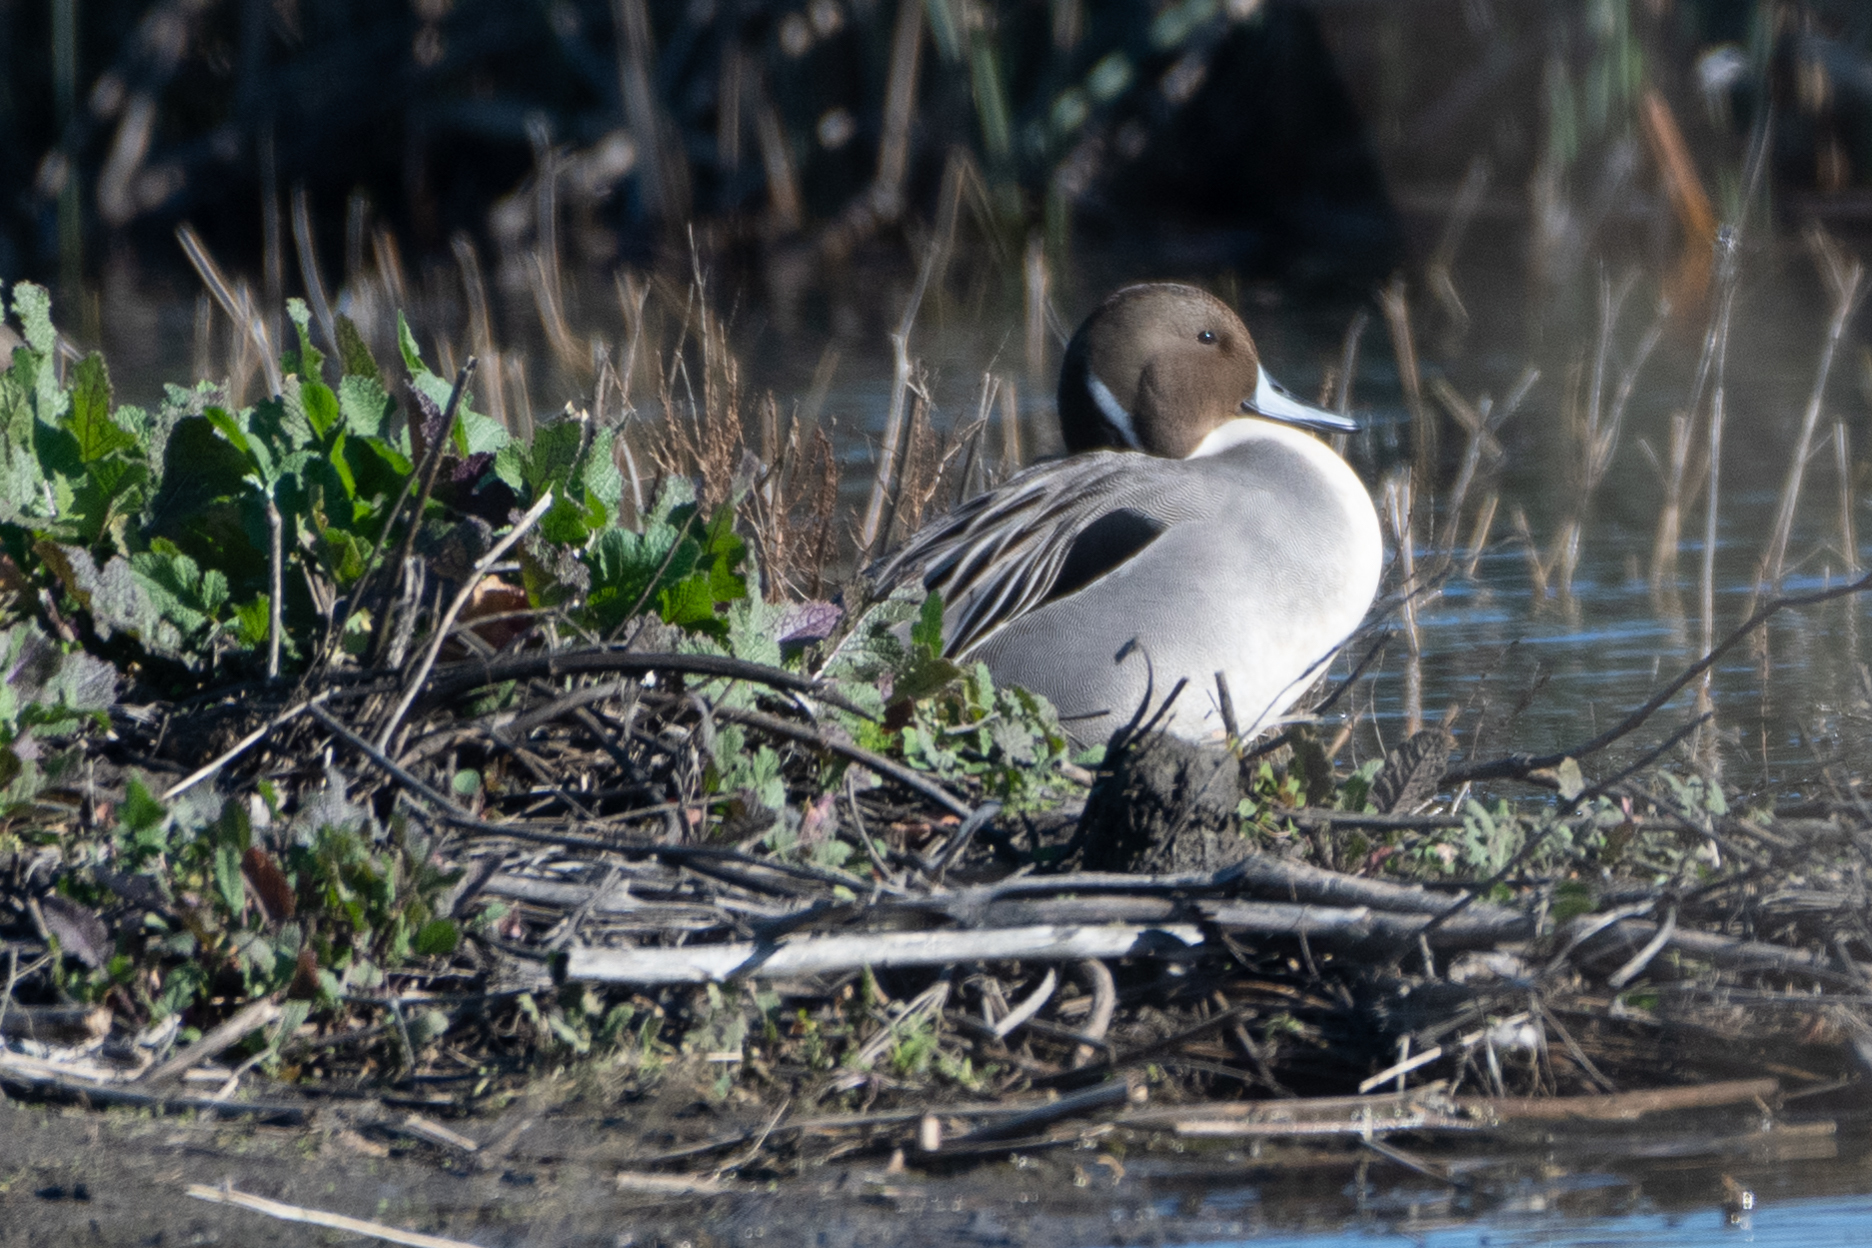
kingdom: Animalia
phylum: Chordata
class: Aves
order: Anseriformes
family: Anatidae
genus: Anas
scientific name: Anas acuta
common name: Northern pintail
